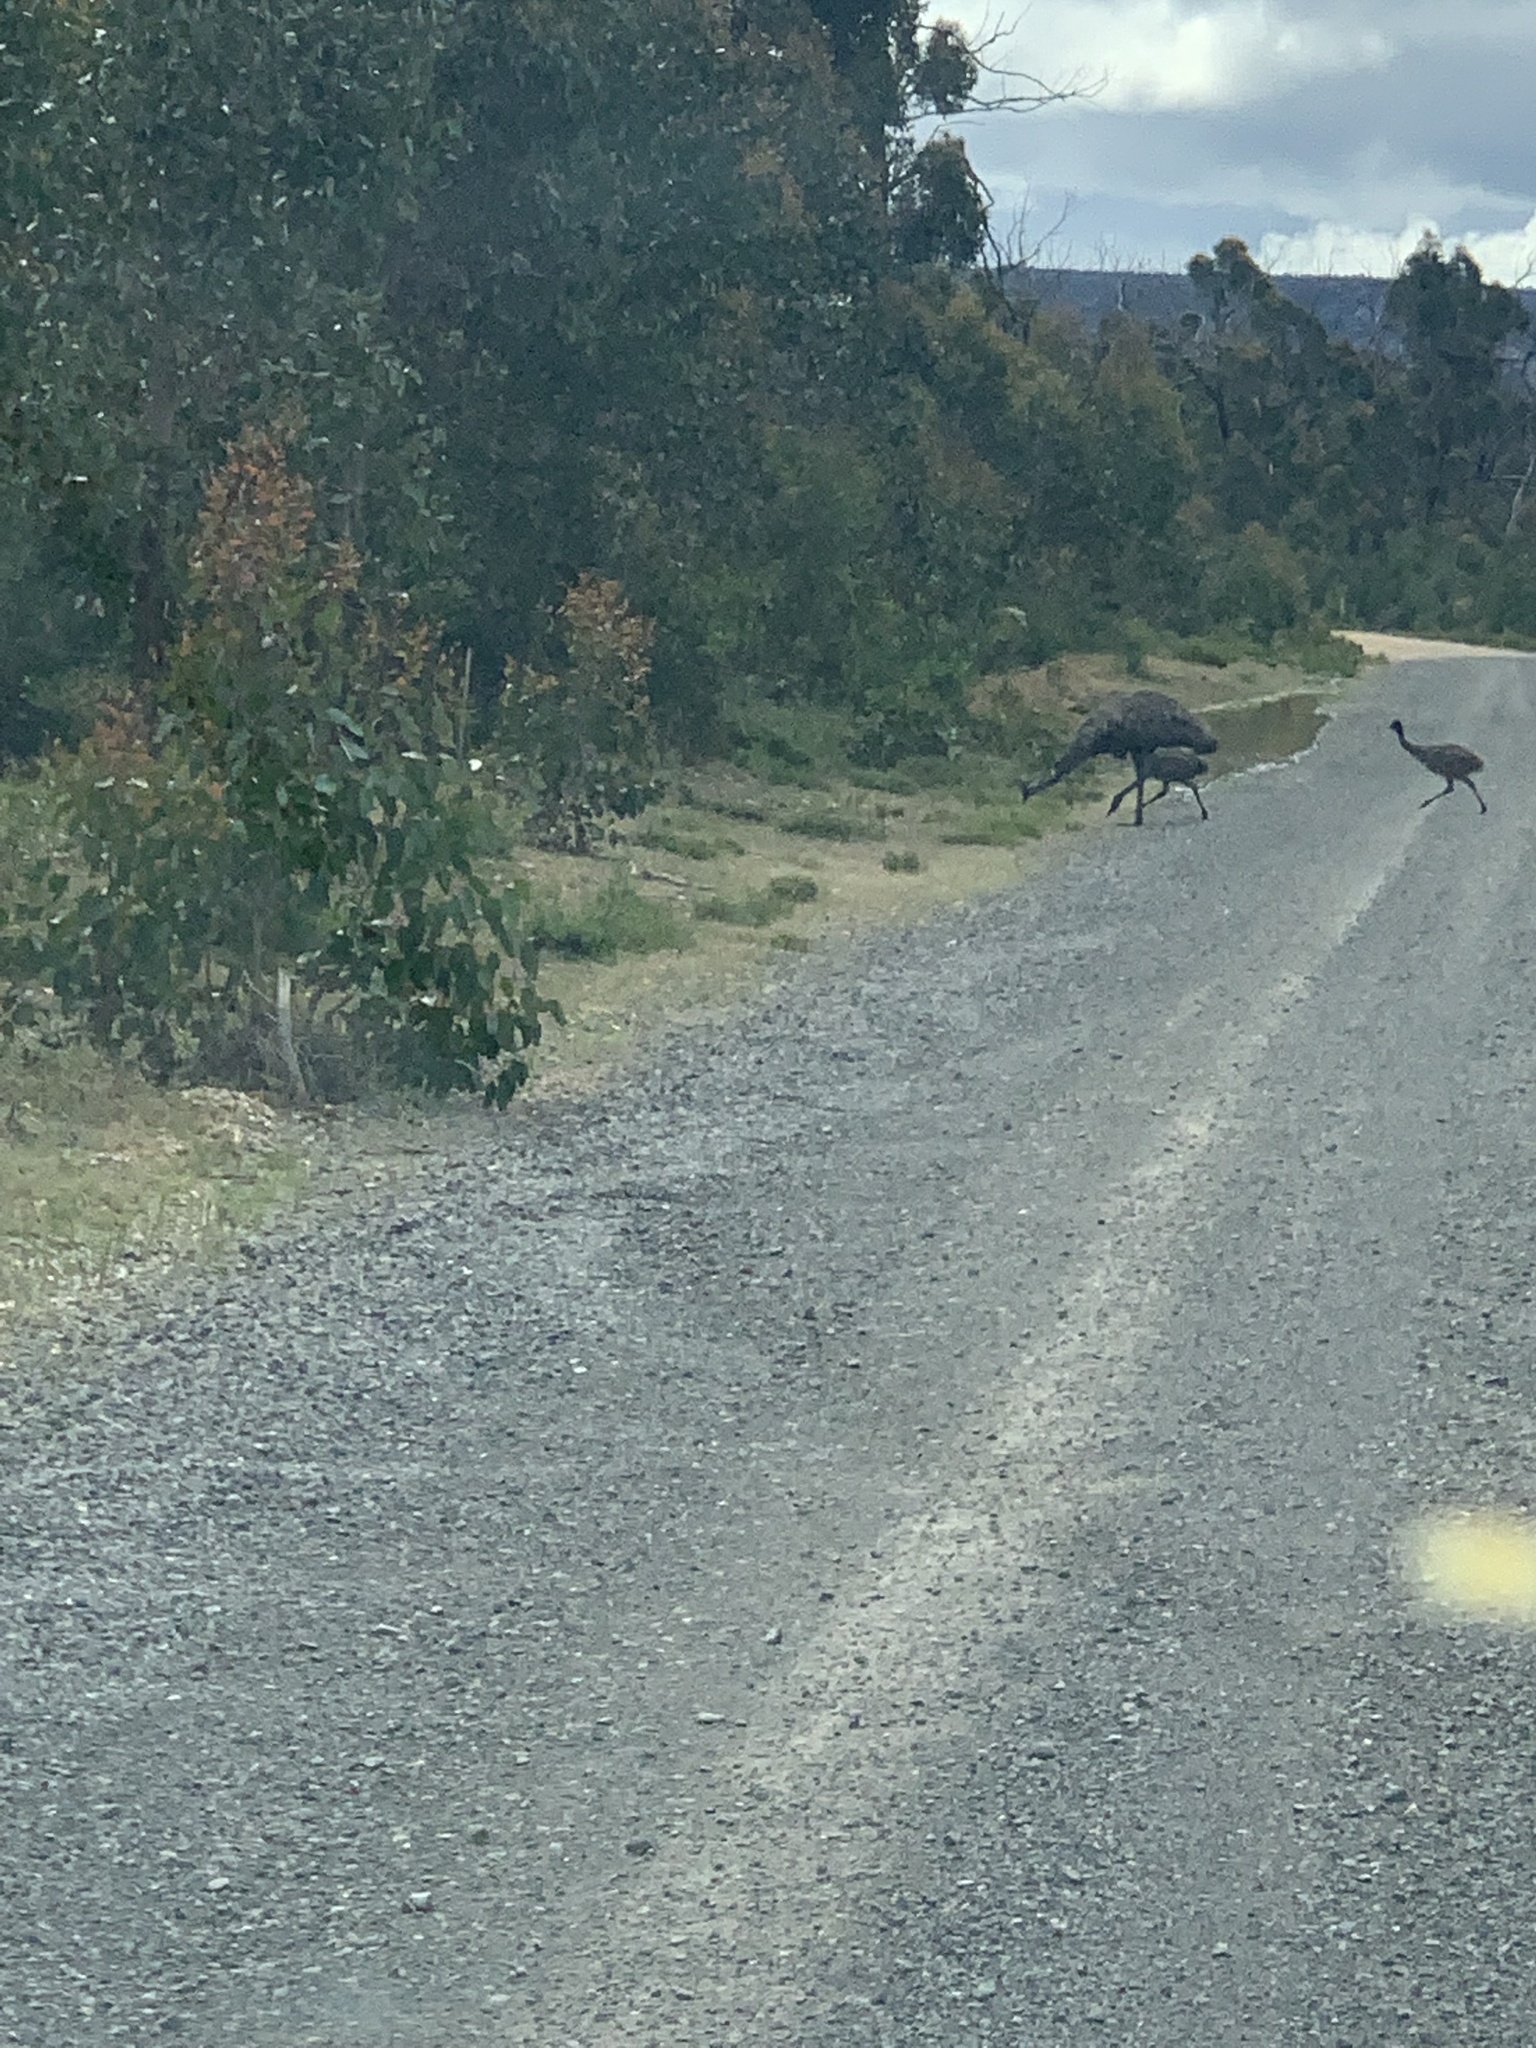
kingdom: Animalia
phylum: Chordata
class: Aves
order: Casuariiformes
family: Dromaiidae
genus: Dromaius
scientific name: Dromaius novaehollandiae
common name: Emu
